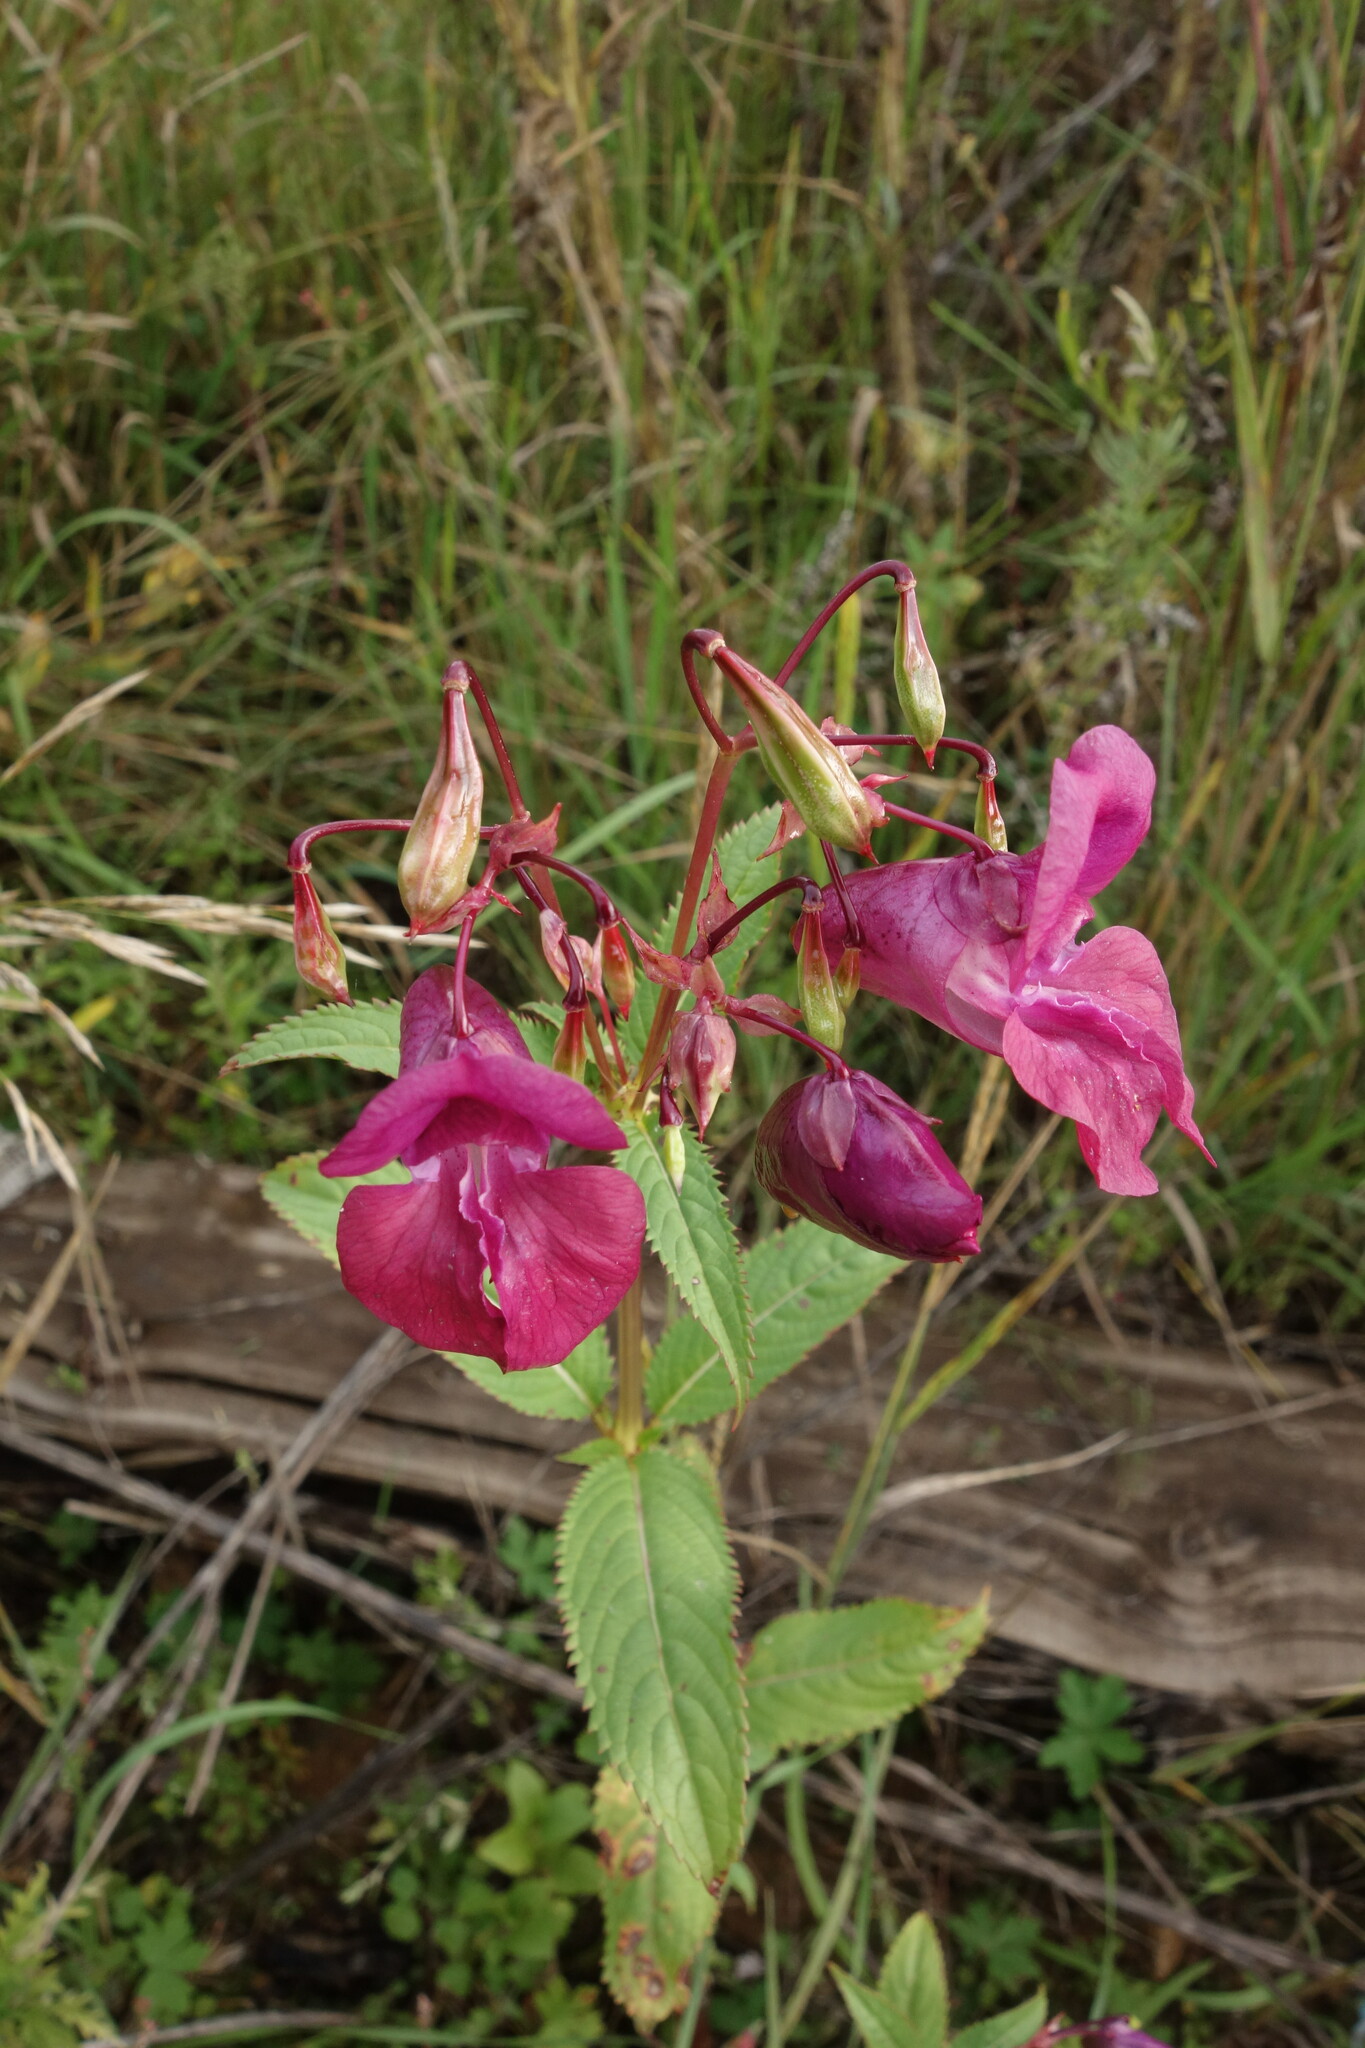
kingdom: Plantae
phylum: Tracheophyta
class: Magnoliopsida
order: Ericales
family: Balsaminaceae
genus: Impatiens
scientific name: Impatiens glandulifera
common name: Himalayan balsam
